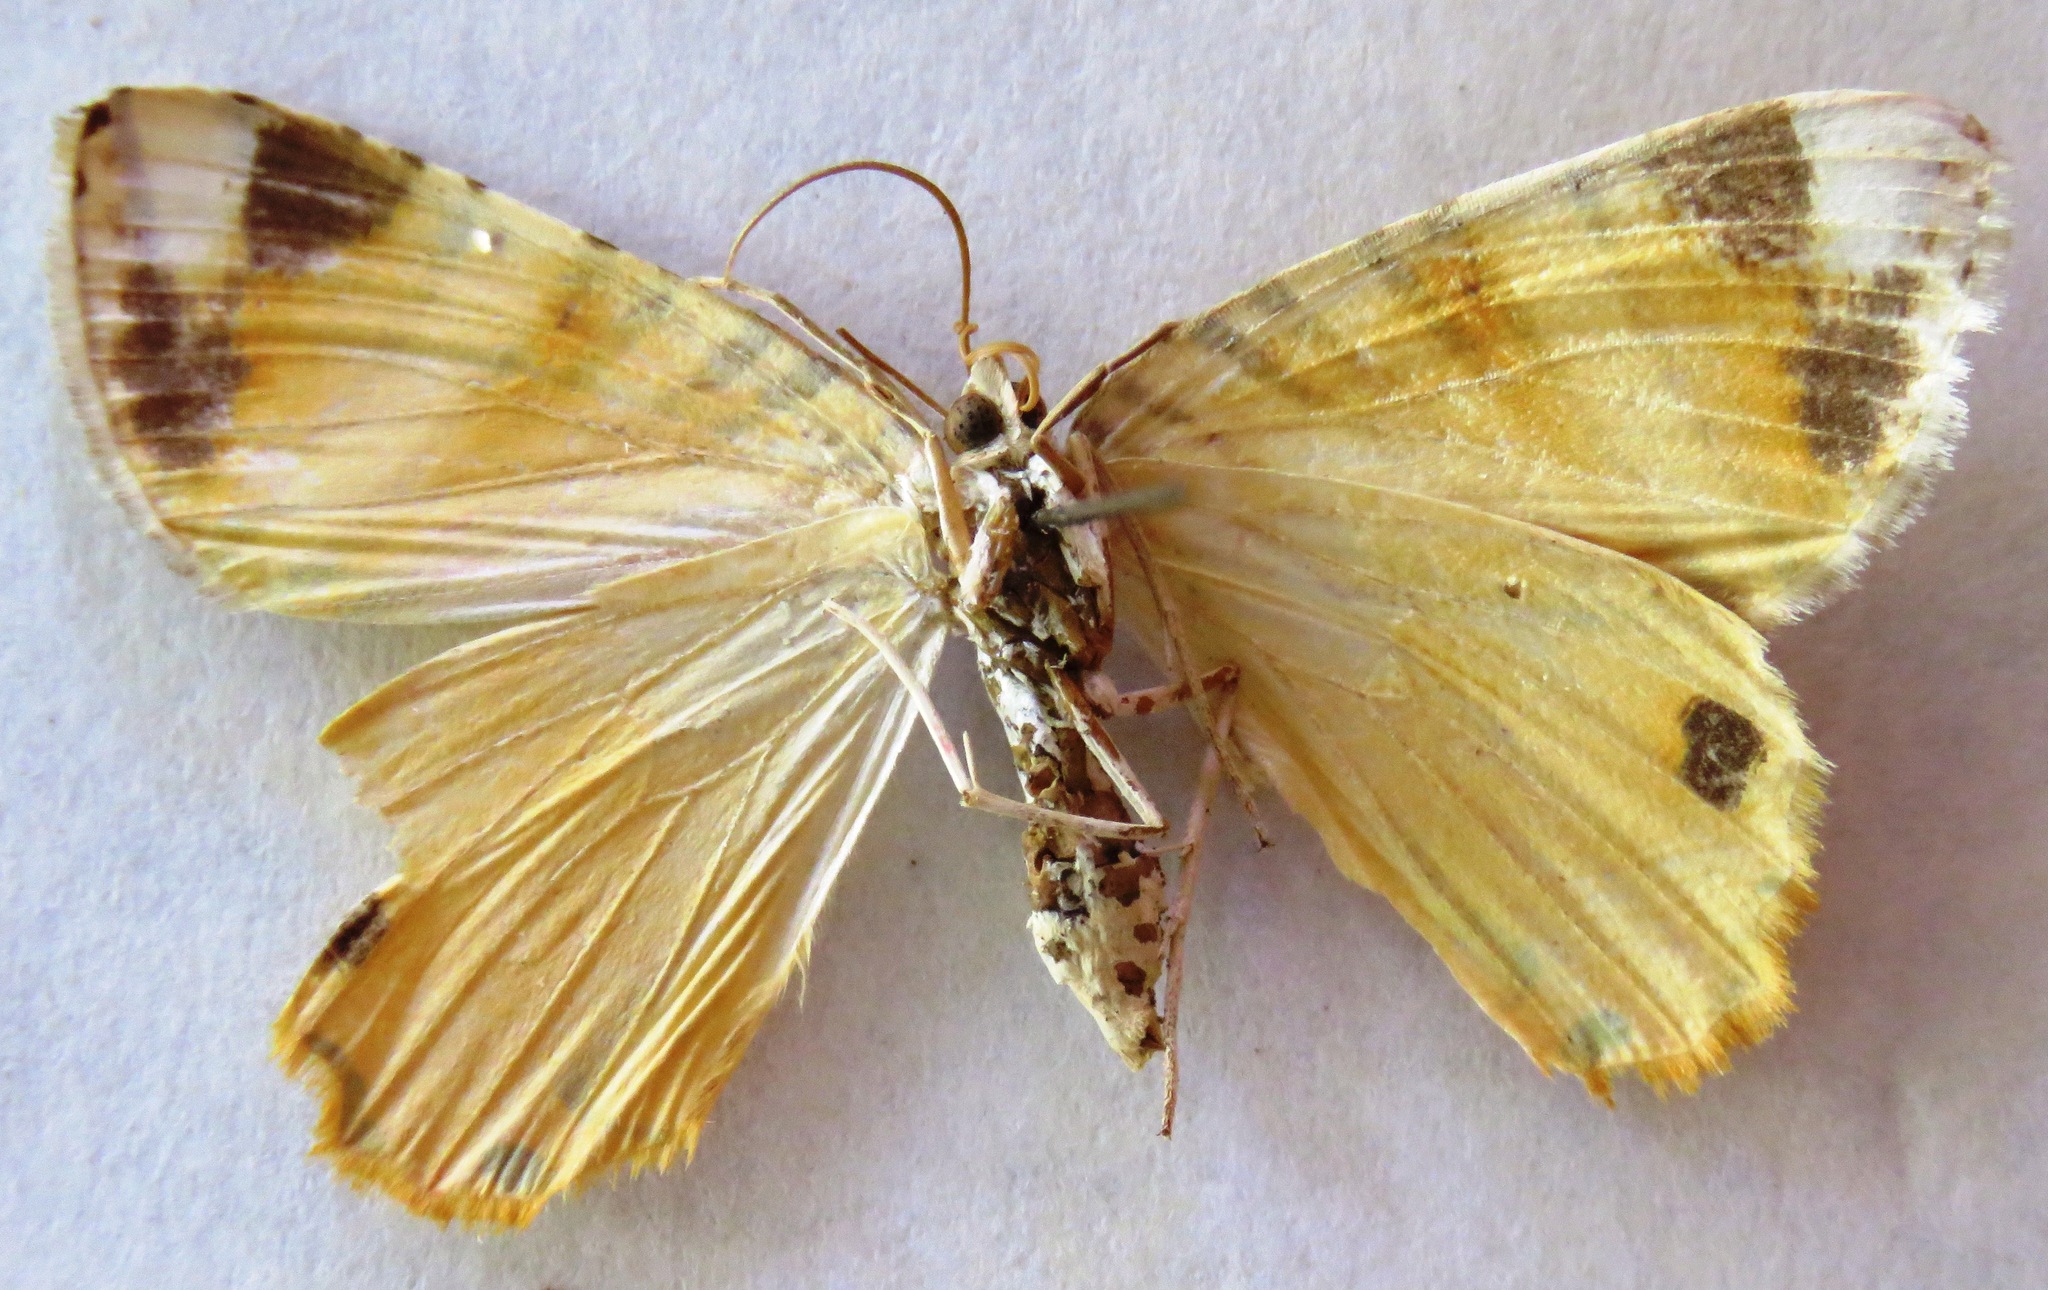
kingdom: Animalia
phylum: Arthropoda
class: Insecta
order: Lepidoptera
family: Geometridae
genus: Pityeja
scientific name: Pityeja histrionaria
